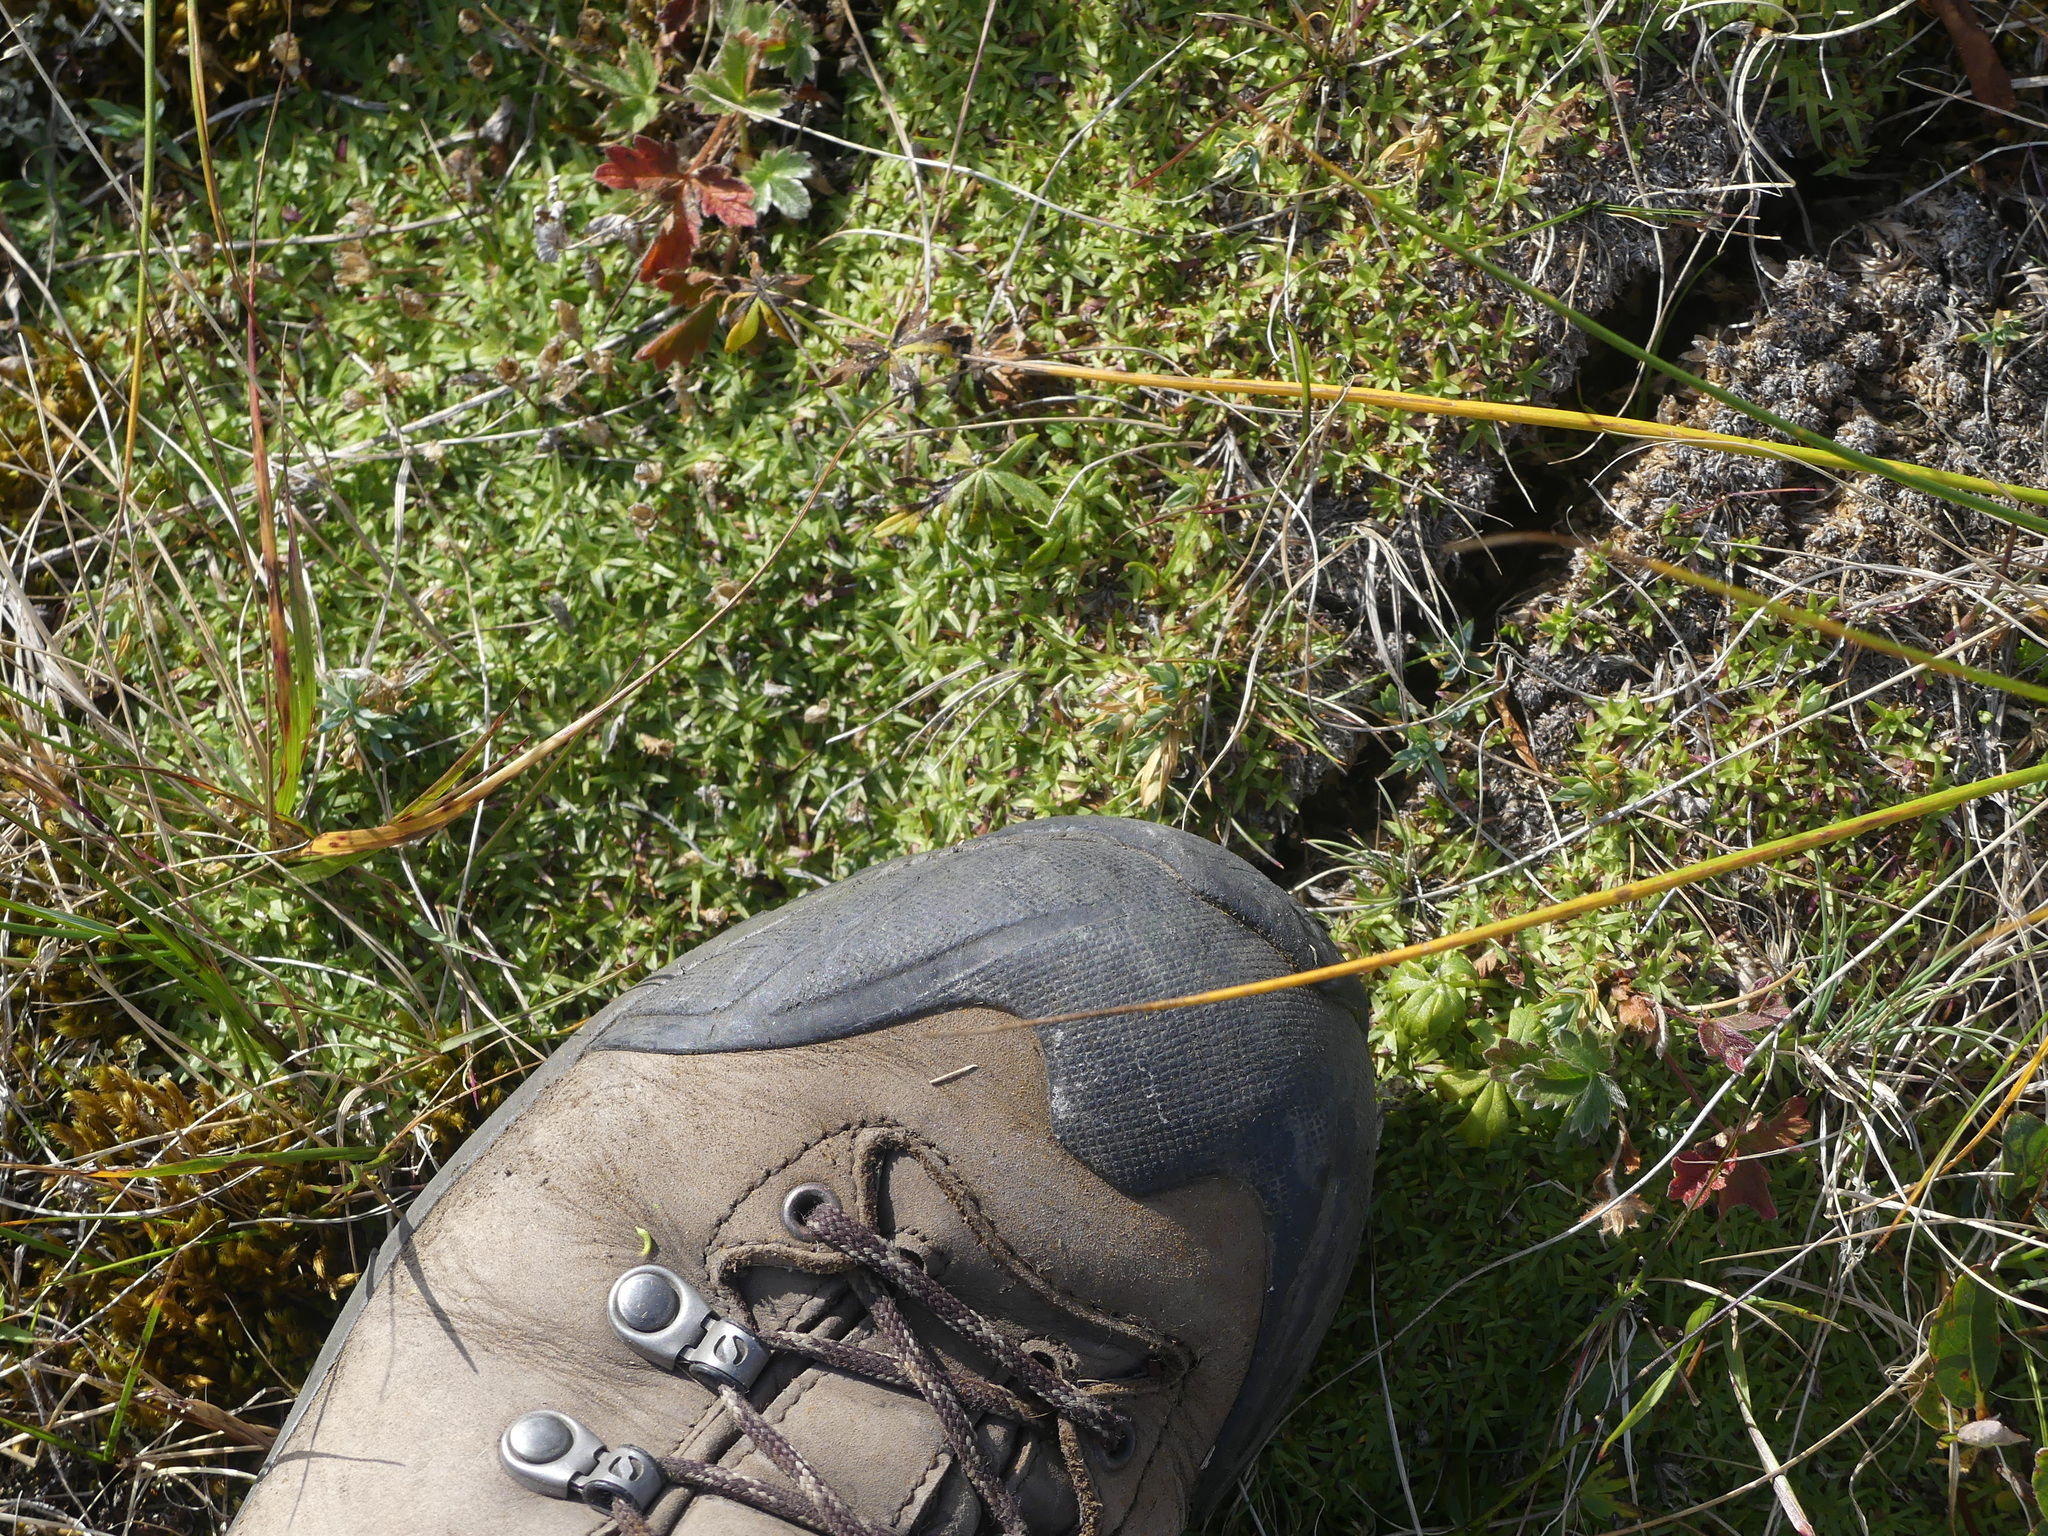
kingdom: Plantae
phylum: Tracheophyta
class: Magnoliopsida
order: Caryophyllales
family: Caryophyllaceae
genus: Silene
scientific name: Silene acaulis
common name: Moss campion
